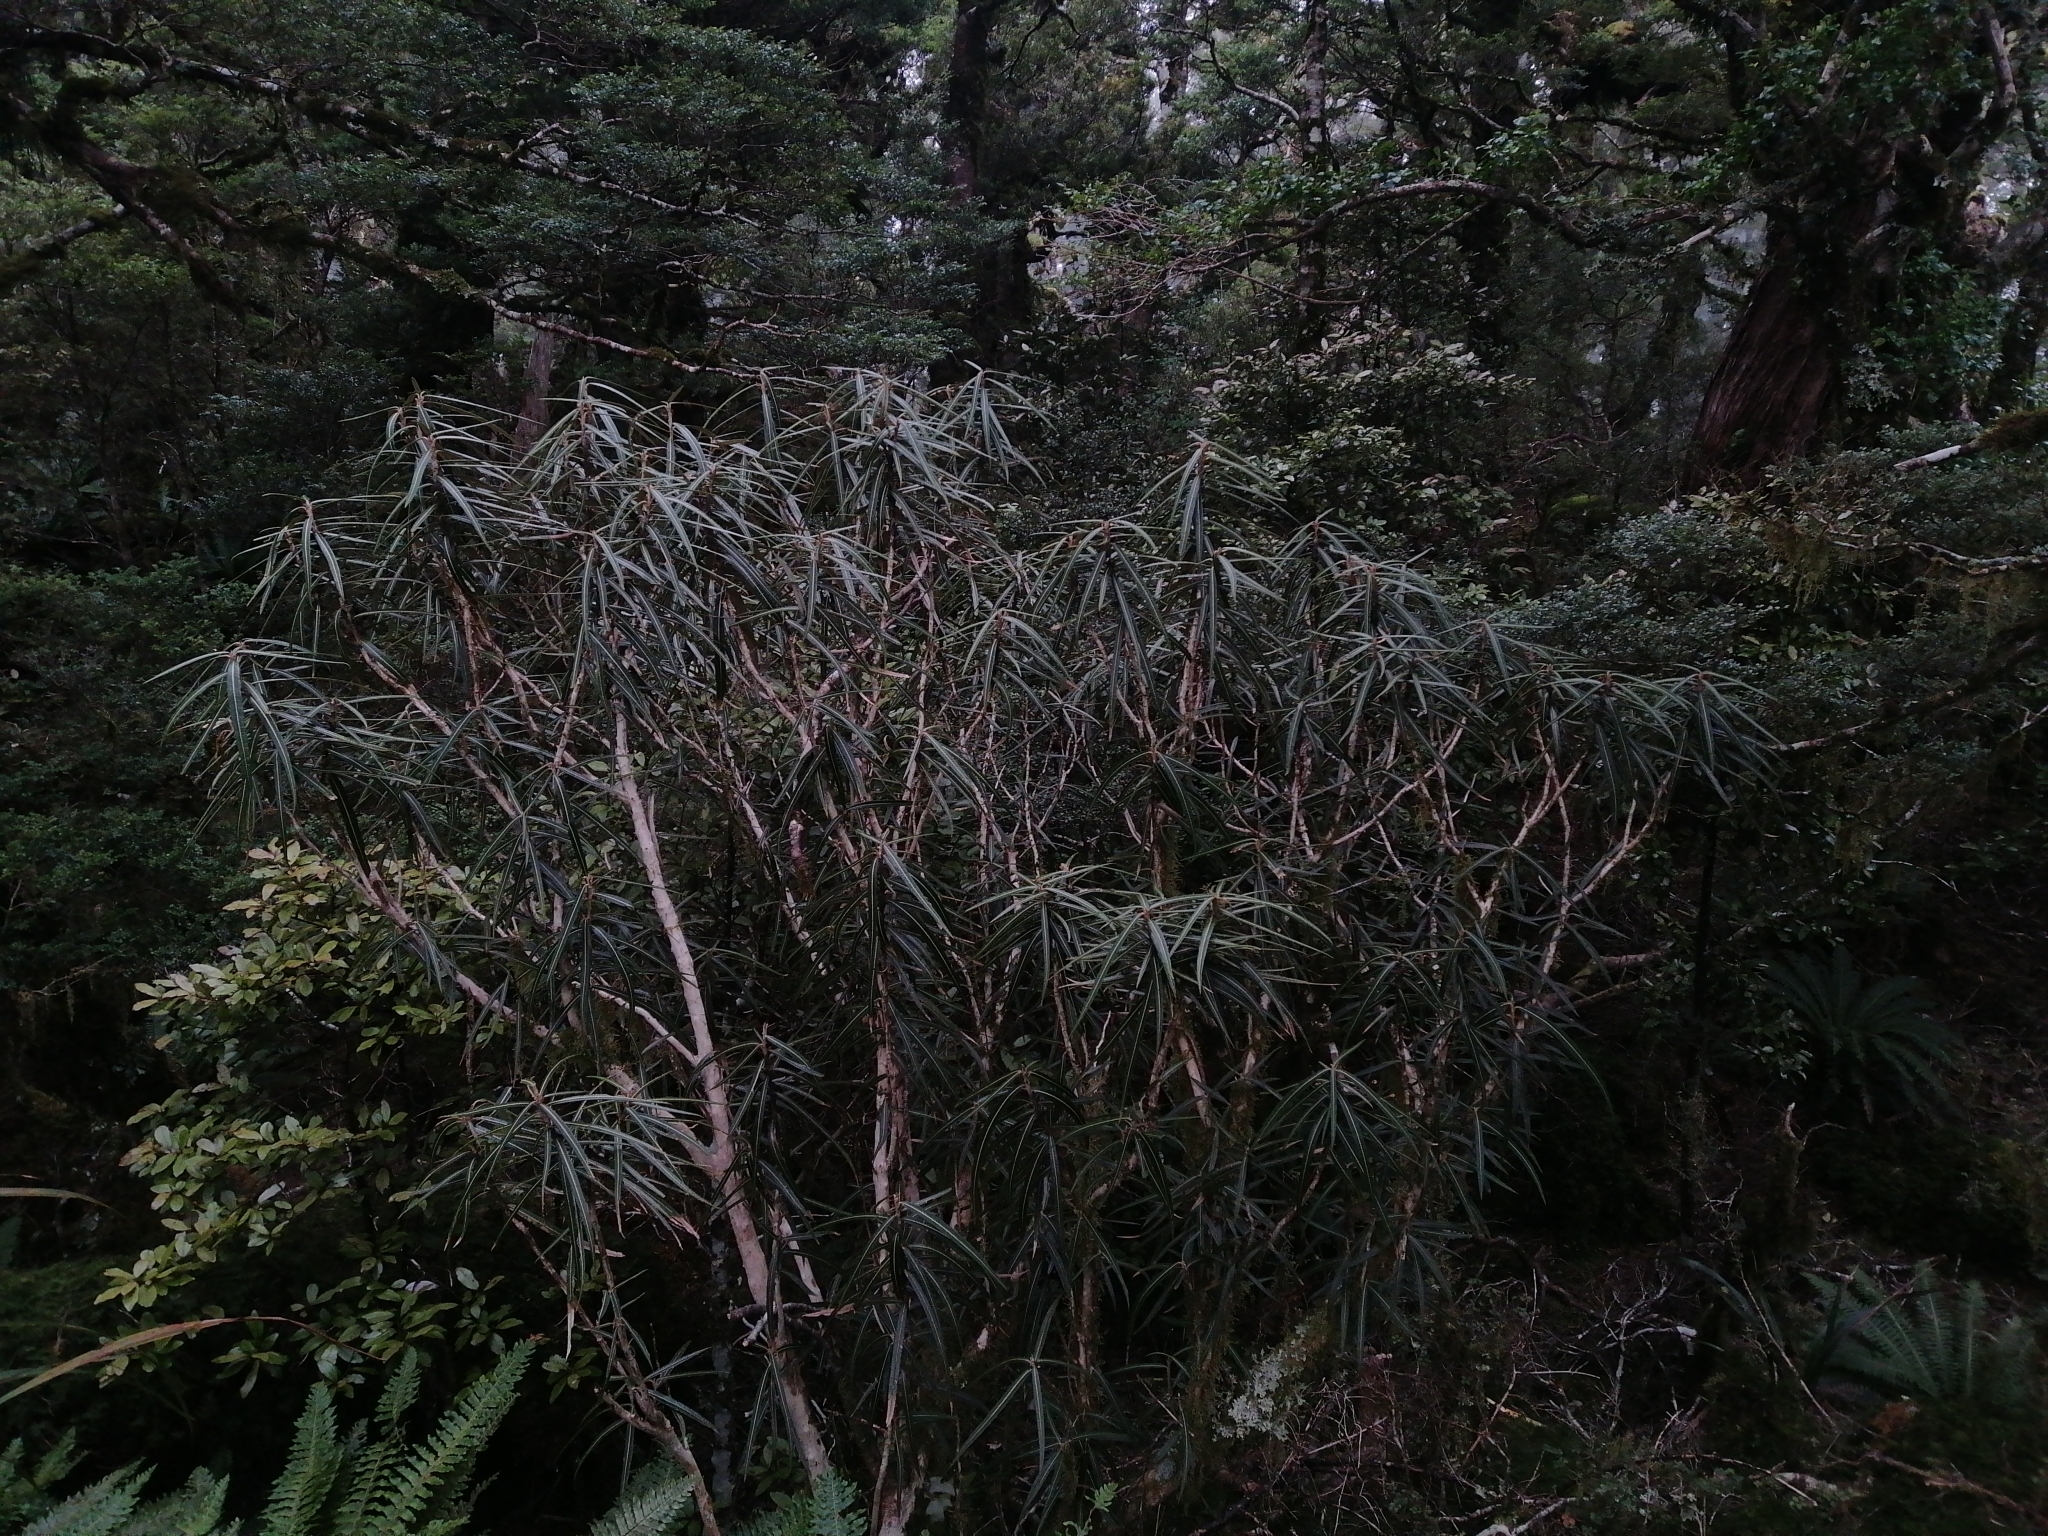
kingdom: Plantae
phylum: Tracheophyta
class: Magnoliopsida
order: Asterales
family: Asteraceae
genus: Olearia
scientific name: Olearia lacunosa
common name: Lancewood tree daisy
